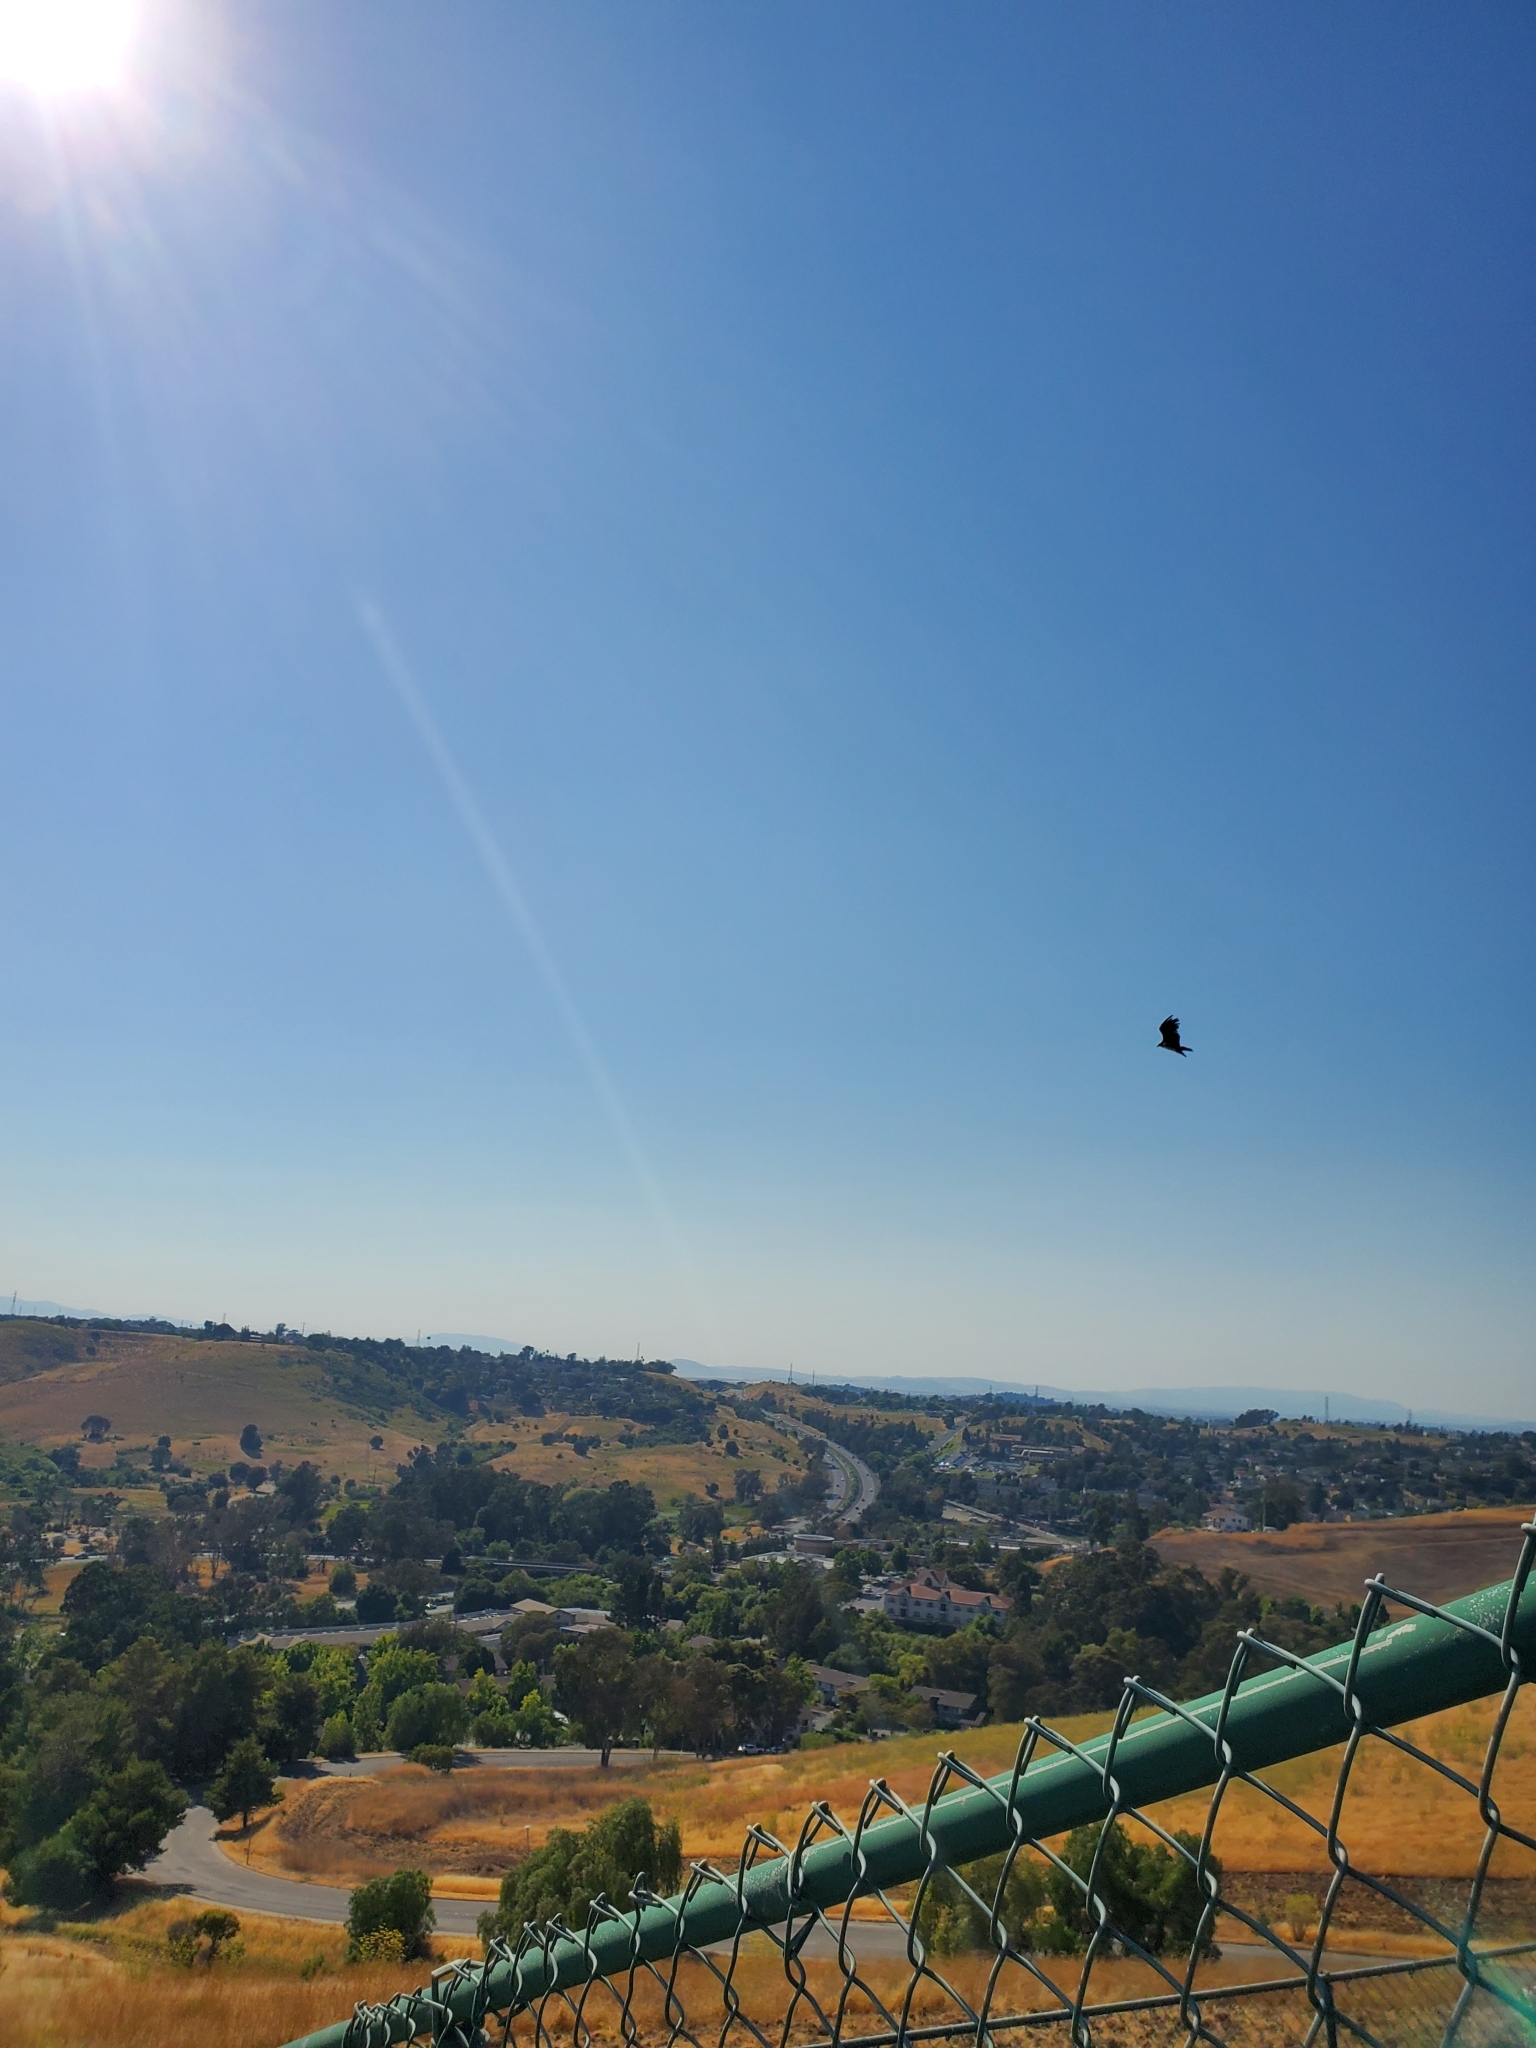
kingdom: Animalia
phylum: Chordata
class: Aves
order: Accipitriformes
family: Cathartidae
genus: Cathartes
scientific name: Cathartes aura
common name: Turkey vulture
